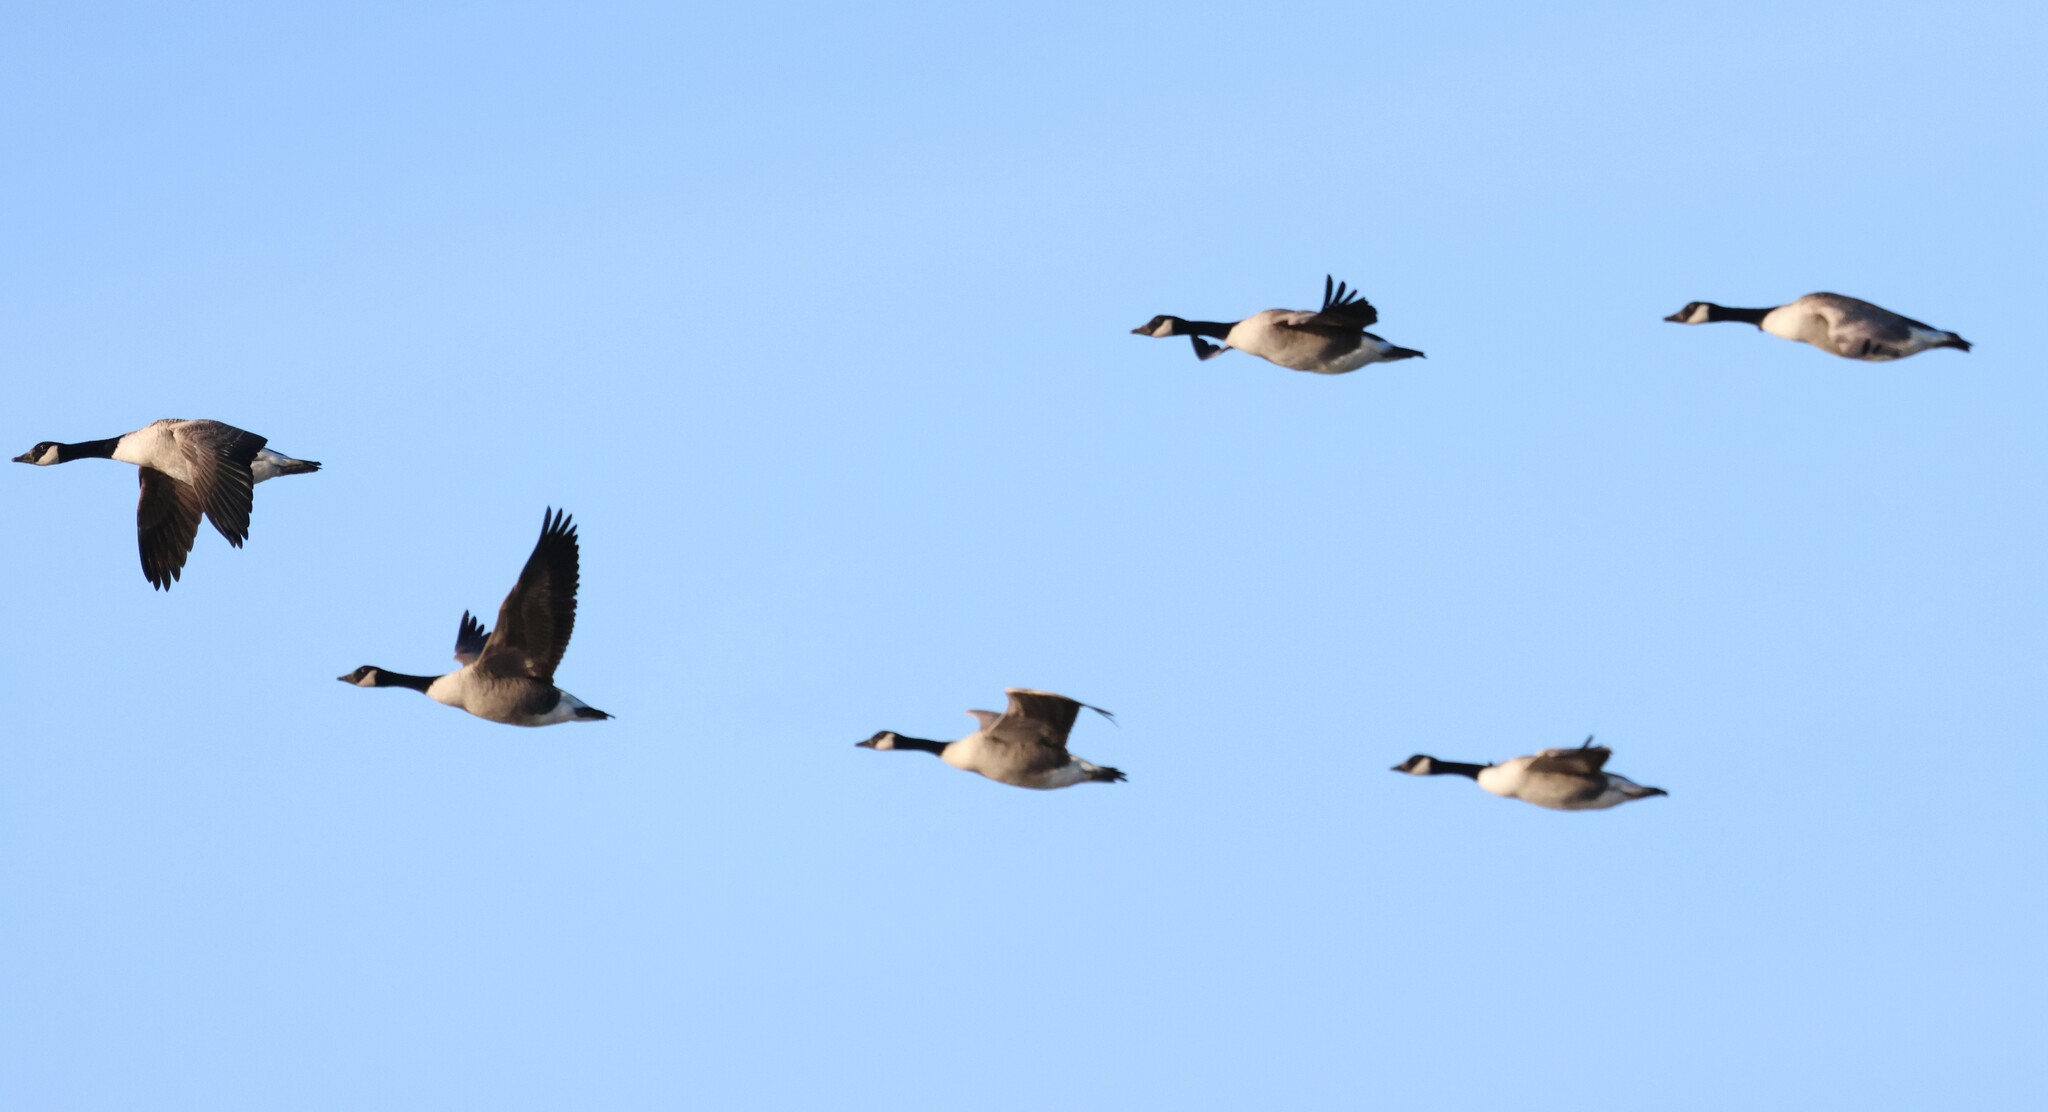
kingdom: Animalia
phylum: Chordata
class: Aves
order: Anseriformes
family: Anatidae
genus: Branta
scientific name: Branta canadensis
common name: Canada goose
